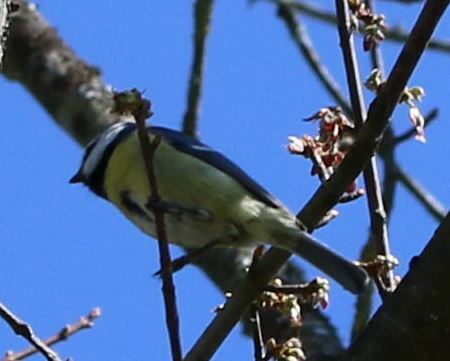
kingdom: Animalia
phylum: Chordata
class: Aves
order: Passeriformes
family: Paridae
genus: Cyanistes
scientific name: Cyanistes caeruleus
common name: Eurasian blue tit
